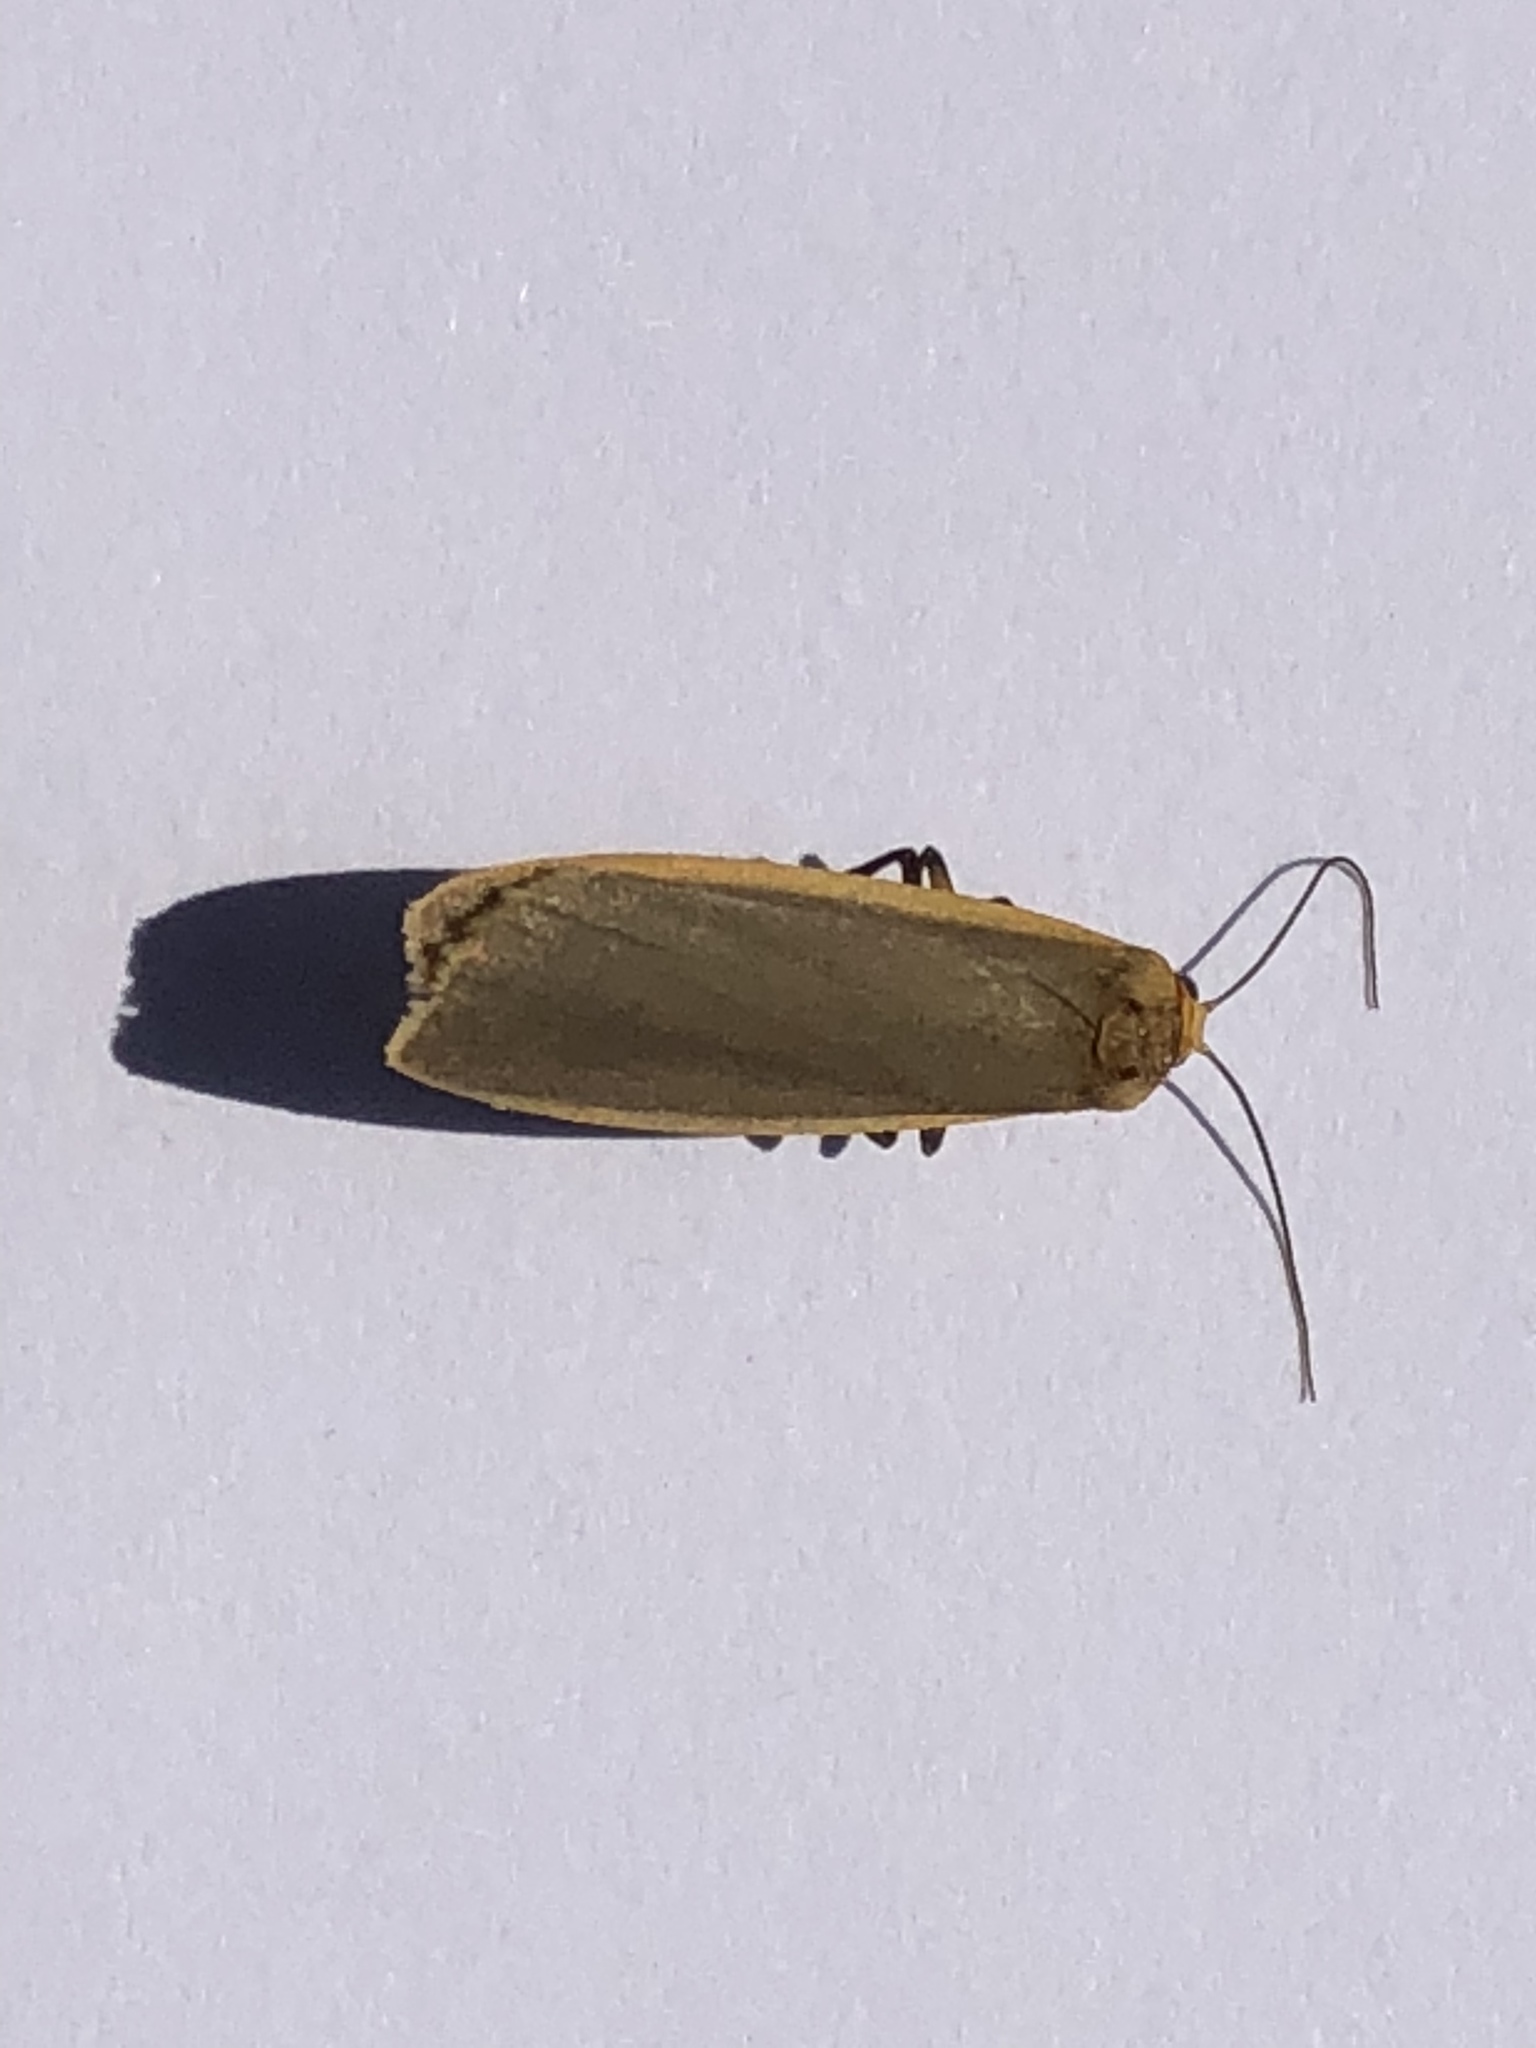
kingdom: Animalia
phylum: Arthropoda
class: Insecta
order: Lepidoptera
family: Erebidae
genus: Nyea
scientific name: Nyea lurideola
